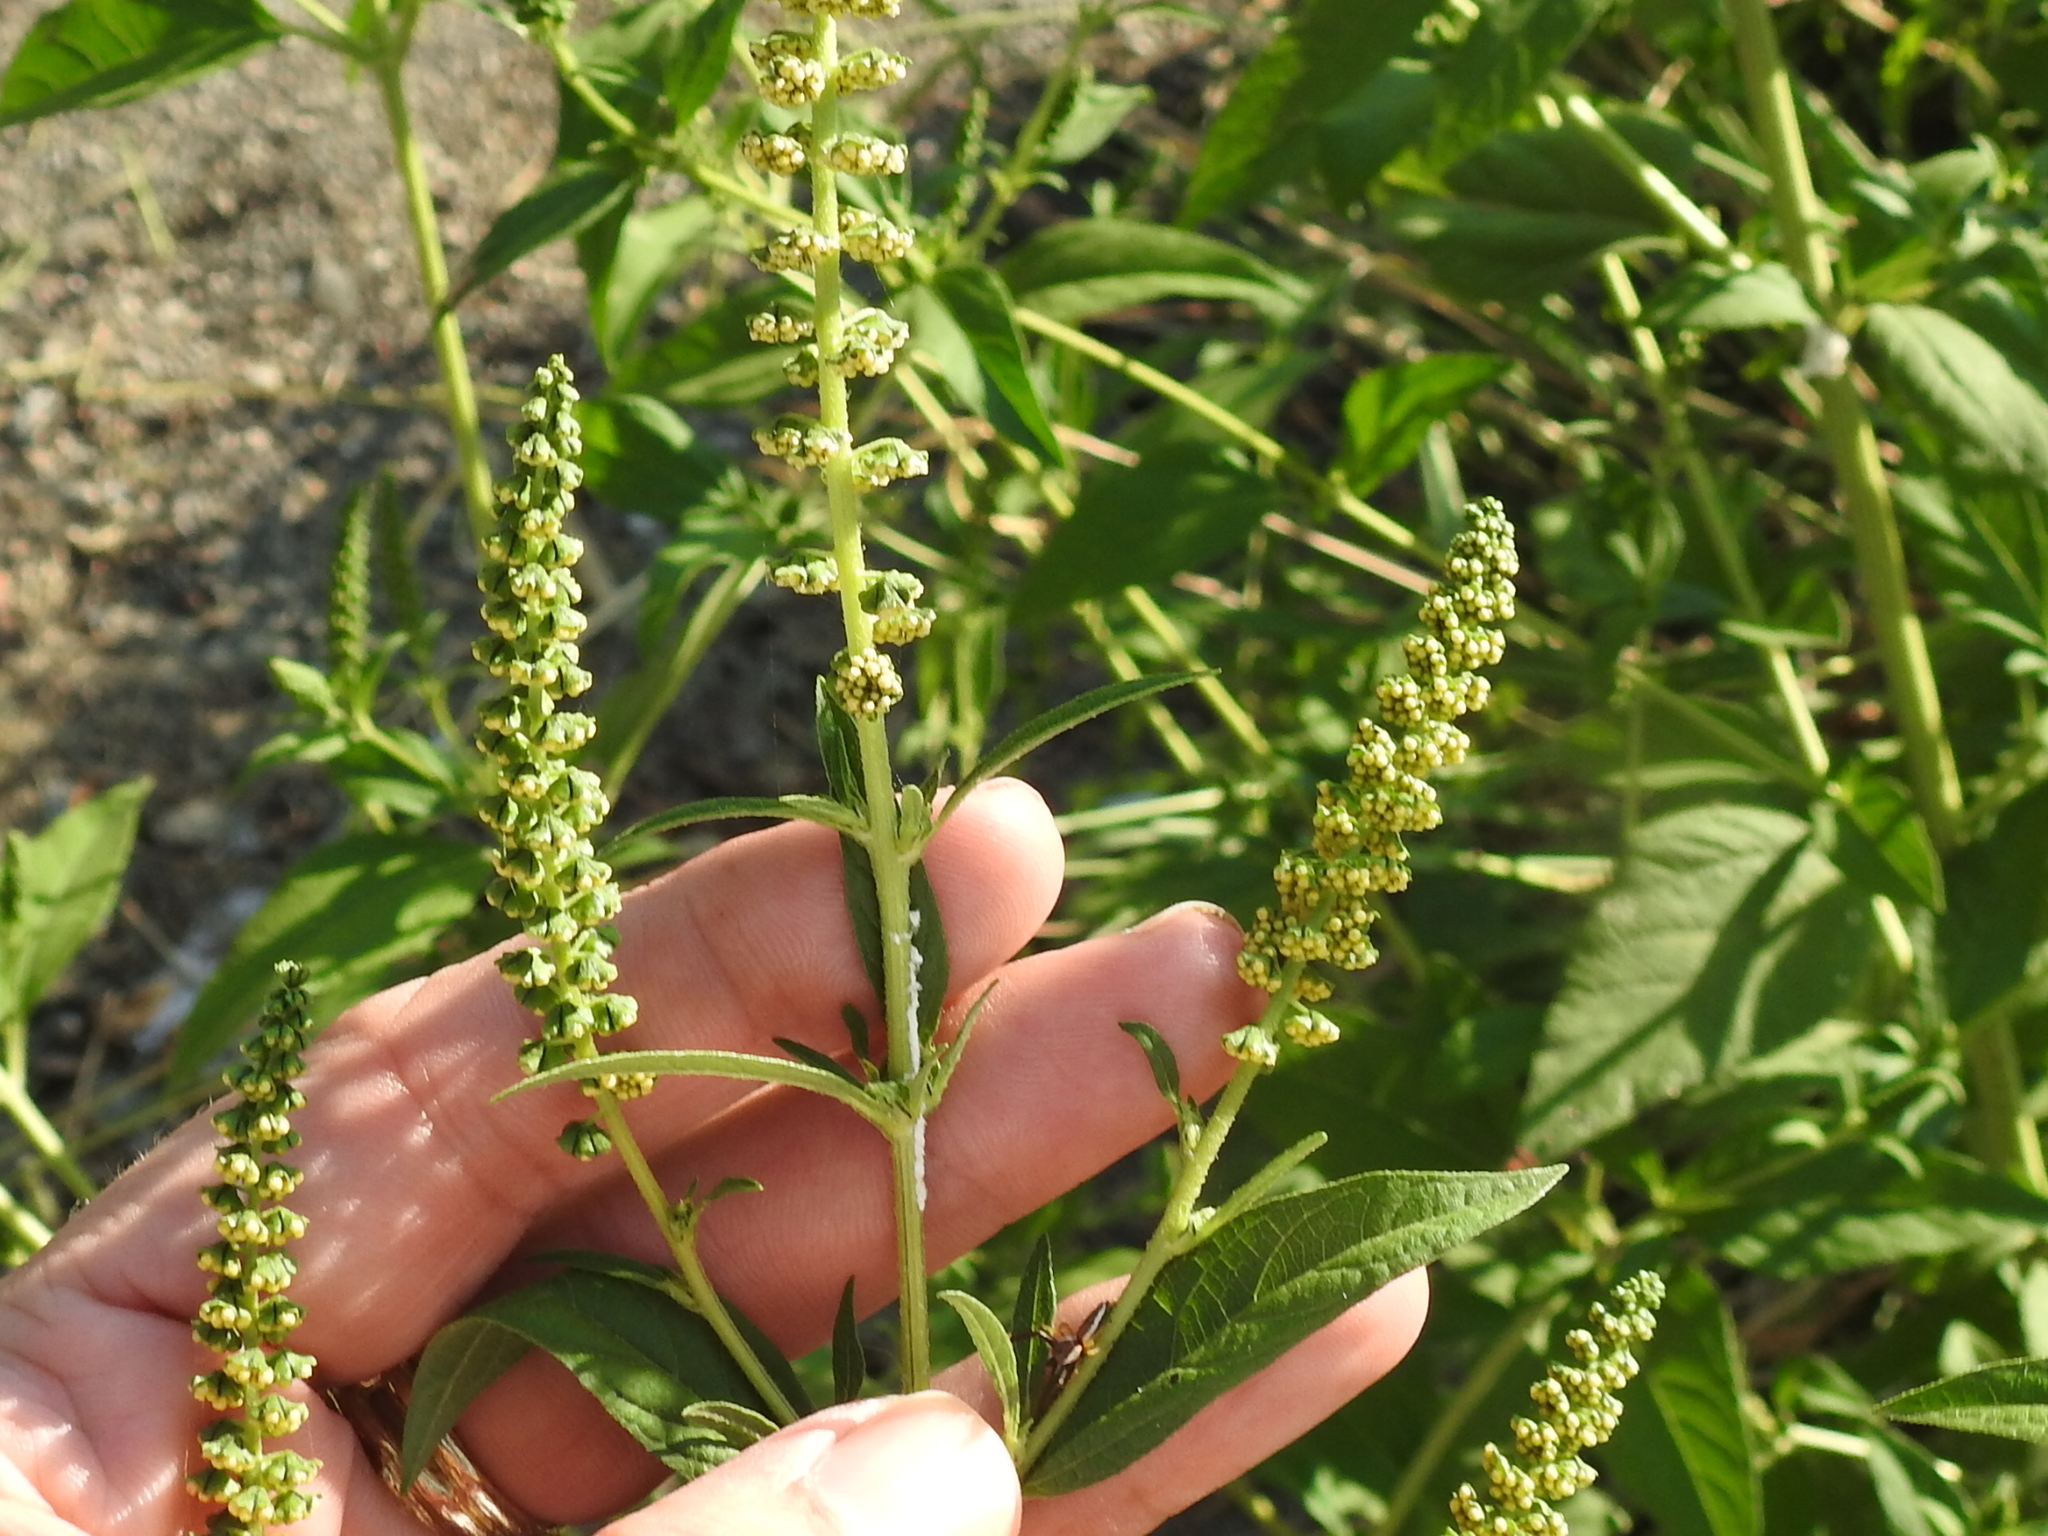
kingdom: Plantae
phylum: Tracheophyta
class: Magnoliopsida
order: Asterales
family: Asteraceae
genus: Ambrosia
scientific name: Ambrosia trifida
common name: Giant ragweed
